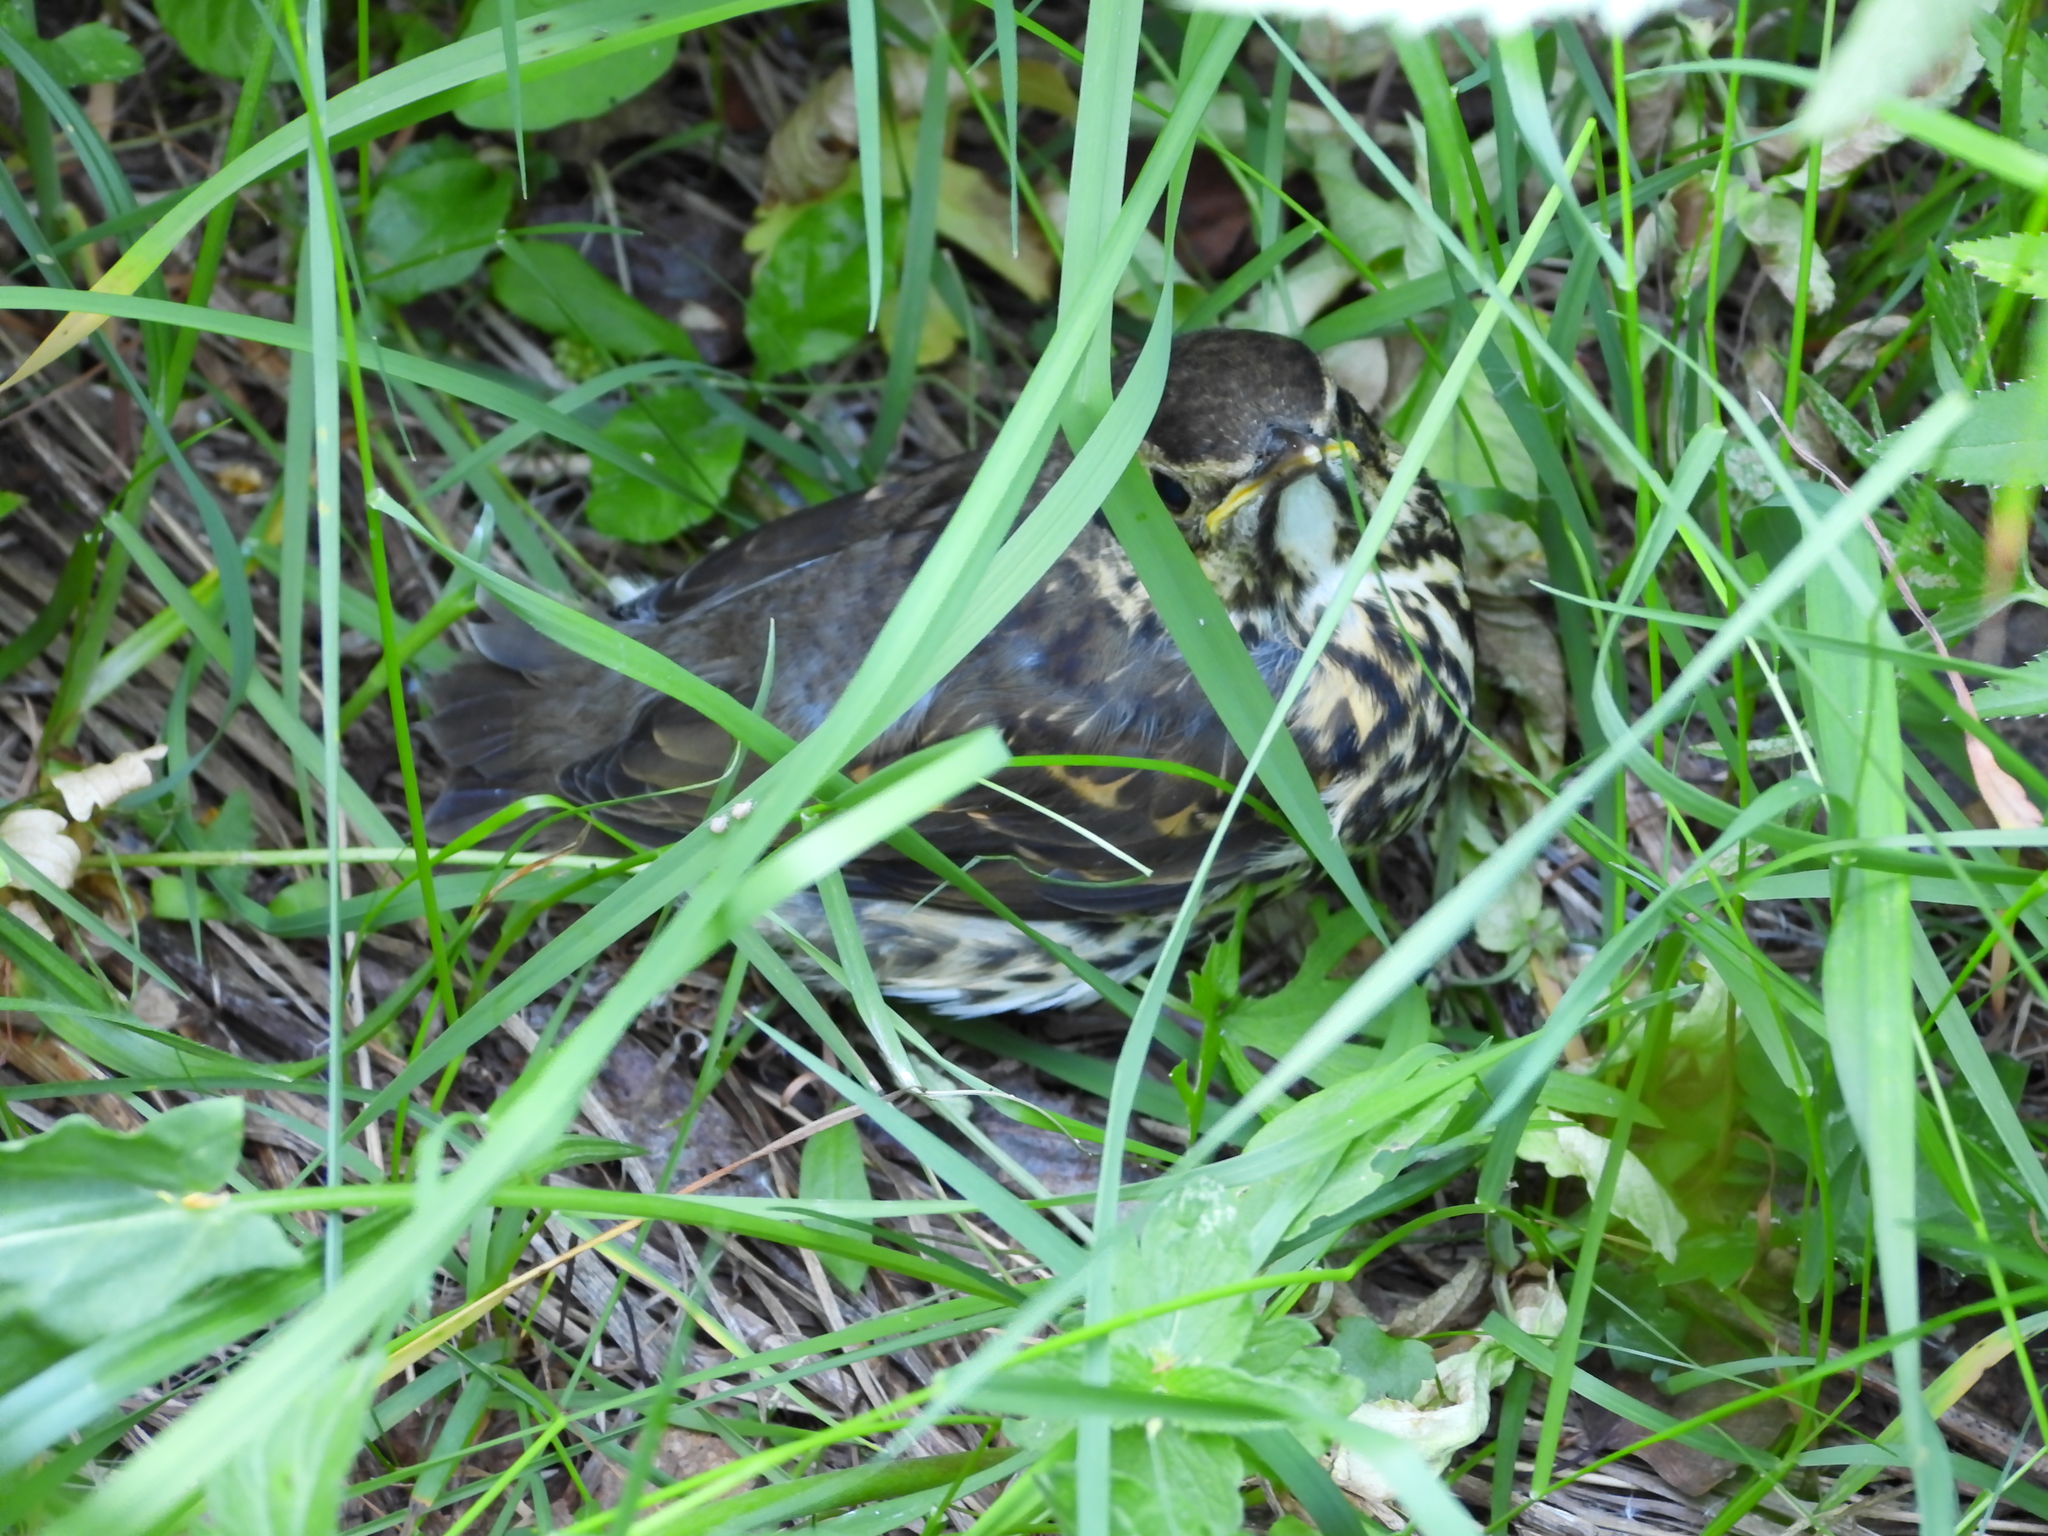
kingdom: Animalia
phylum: Chordata
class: Aves
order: Passeriformes
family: Turdidae
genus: Turdus
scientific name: Turdus philomelos
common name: Song thrush
